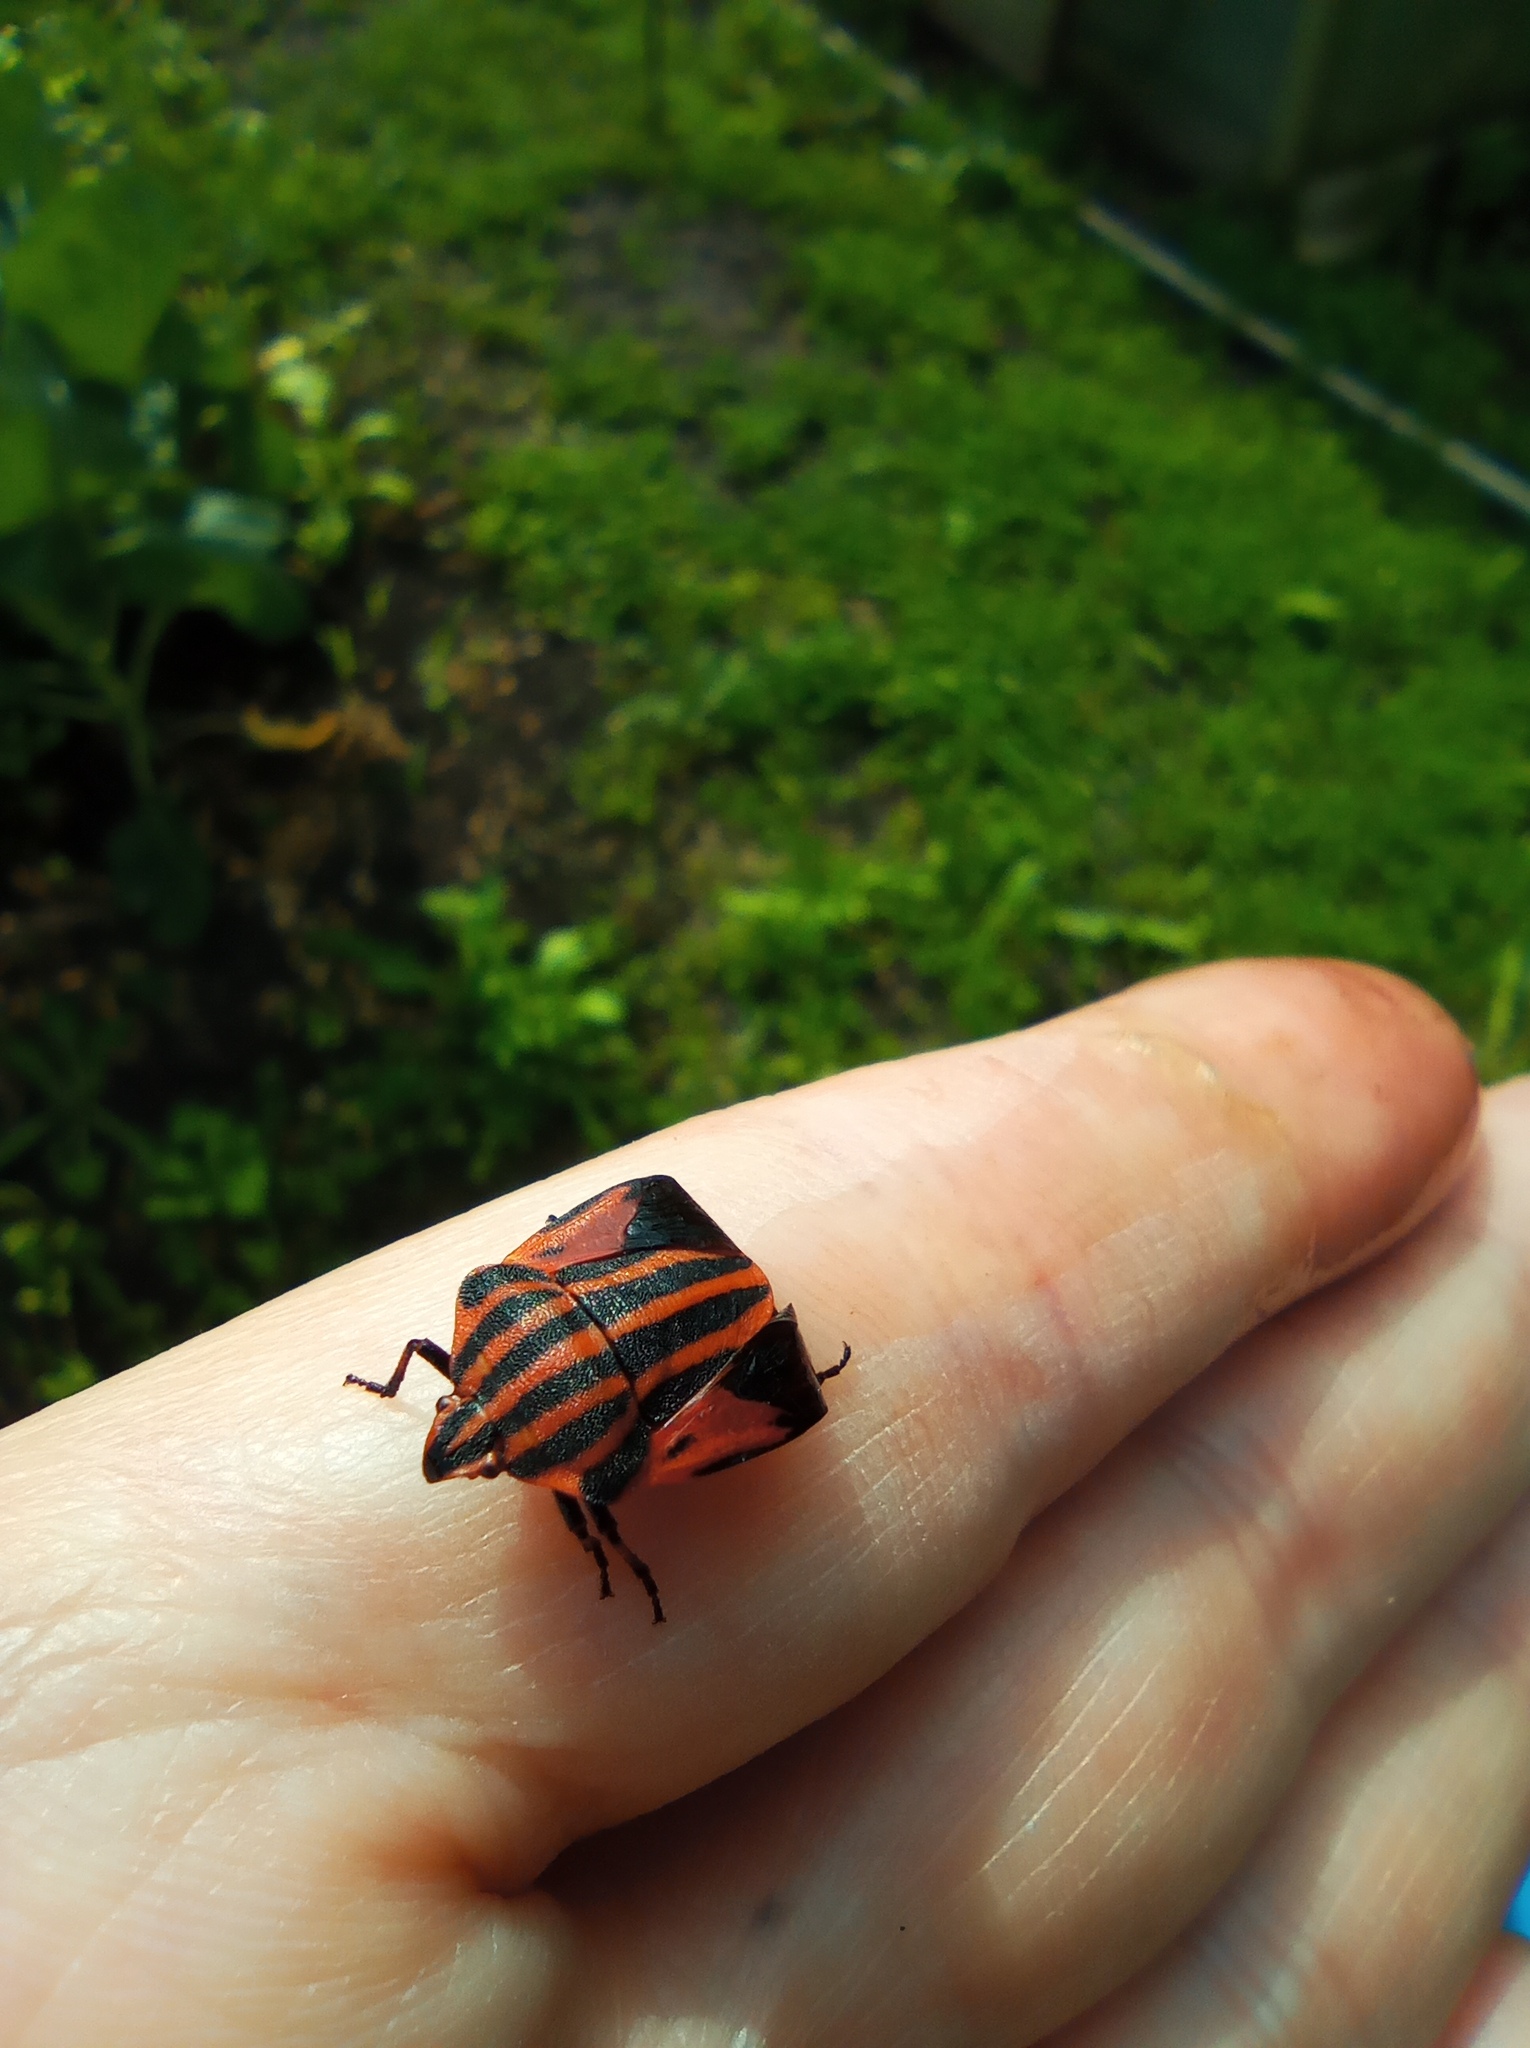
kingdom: Animalia
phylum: Arthropoda
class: Insecta
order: Hemiptera
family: Pentatomidae
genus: Graphosoma
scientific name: Graphosoma italicum
